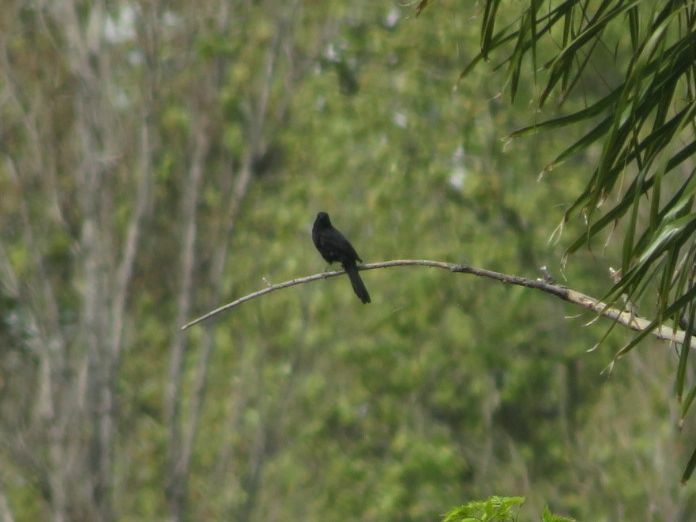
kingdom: Animalia
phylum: Chordata
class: Aves
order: Passeriformes
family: Icteridae
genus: Icterus
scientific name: Icterus cayanensis
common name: Epaulet oriole
